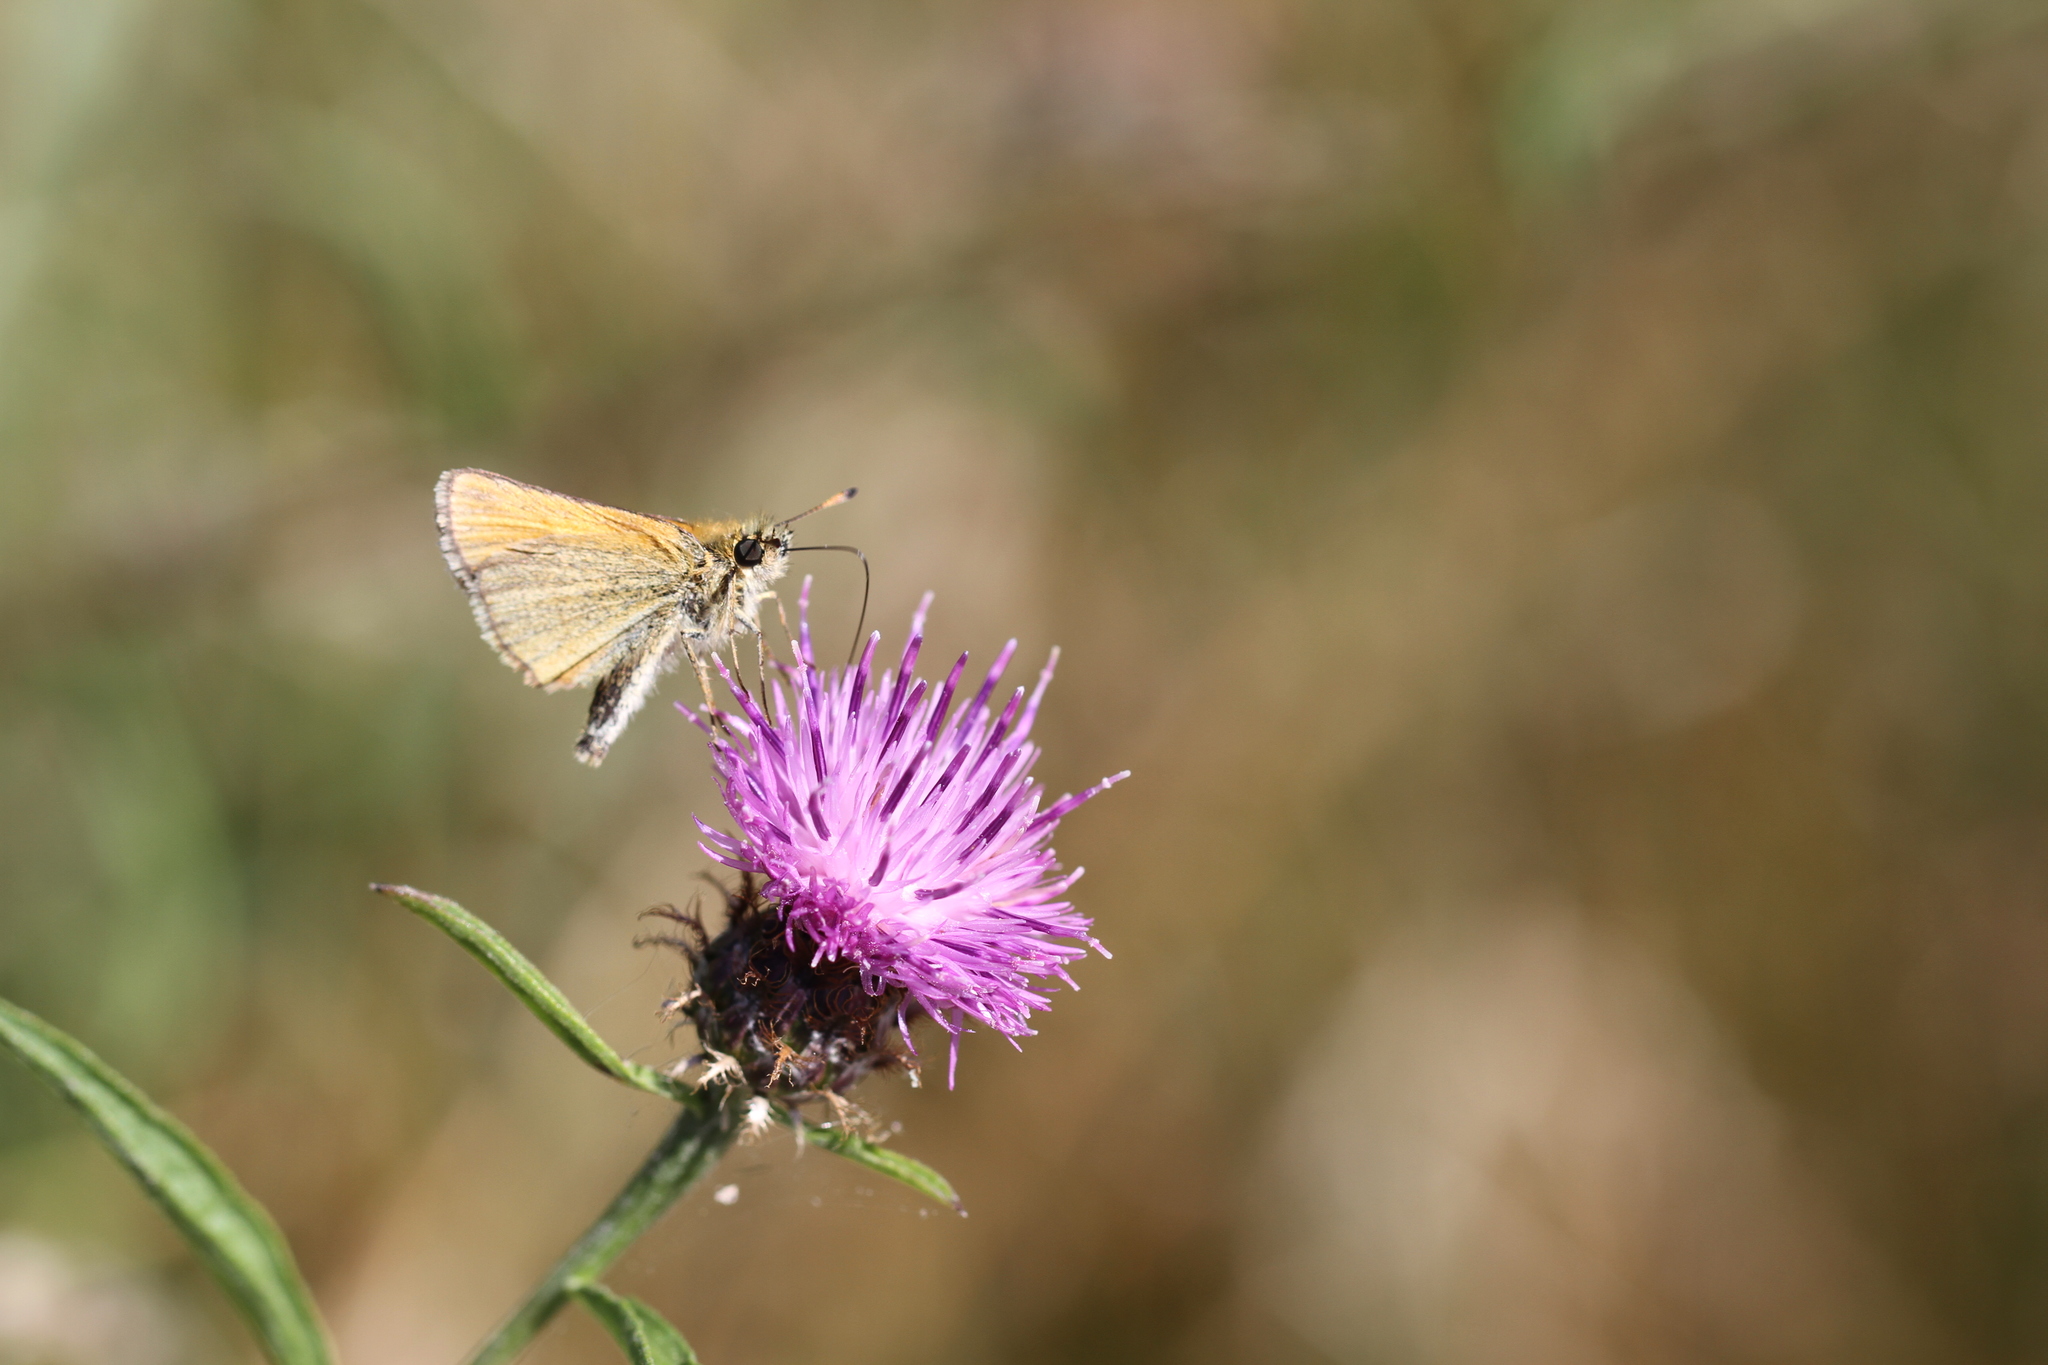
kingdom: Animalia
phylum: Arthropoda
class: Insecta
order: Lepidoptera
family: Hesperiidae
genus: Thymelicus
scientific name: Thymelicus lineola
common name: Essex skipper
